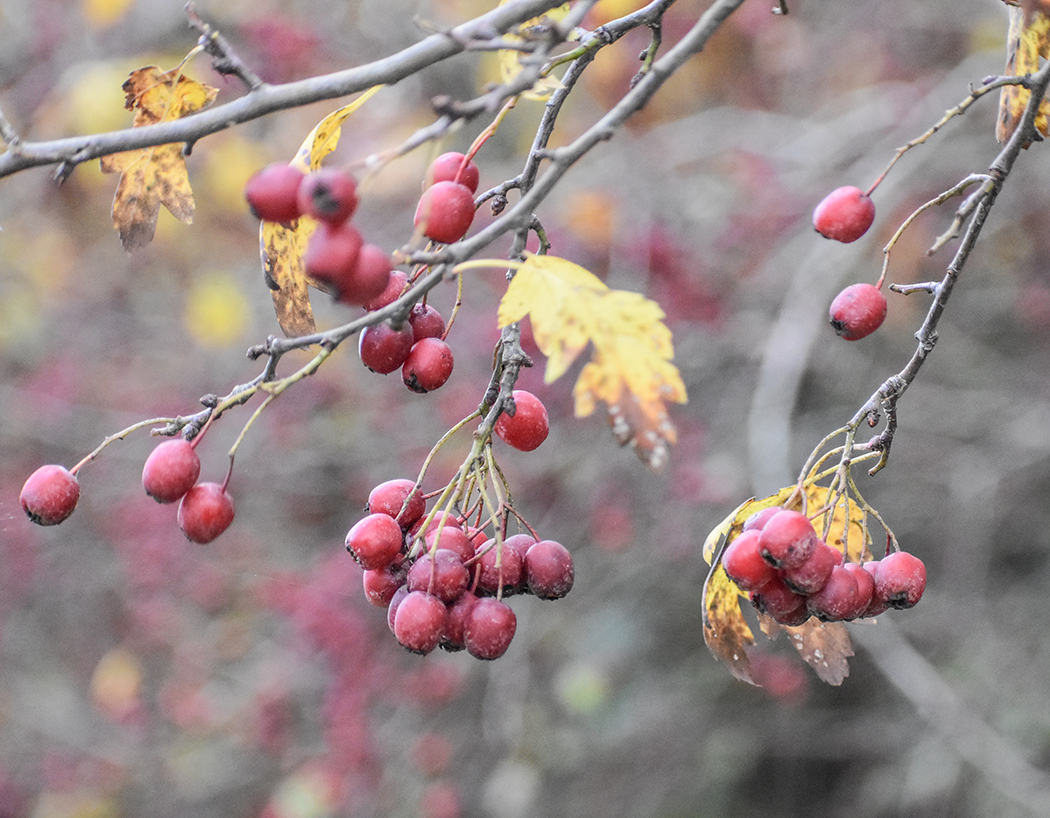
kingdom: Plantae
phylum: Tracheophyta
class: Magnoliopsida
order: Rosales
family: Rosaceae
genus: Crataegus
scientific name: Crataegus laevigata
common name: Midland hawthorn
